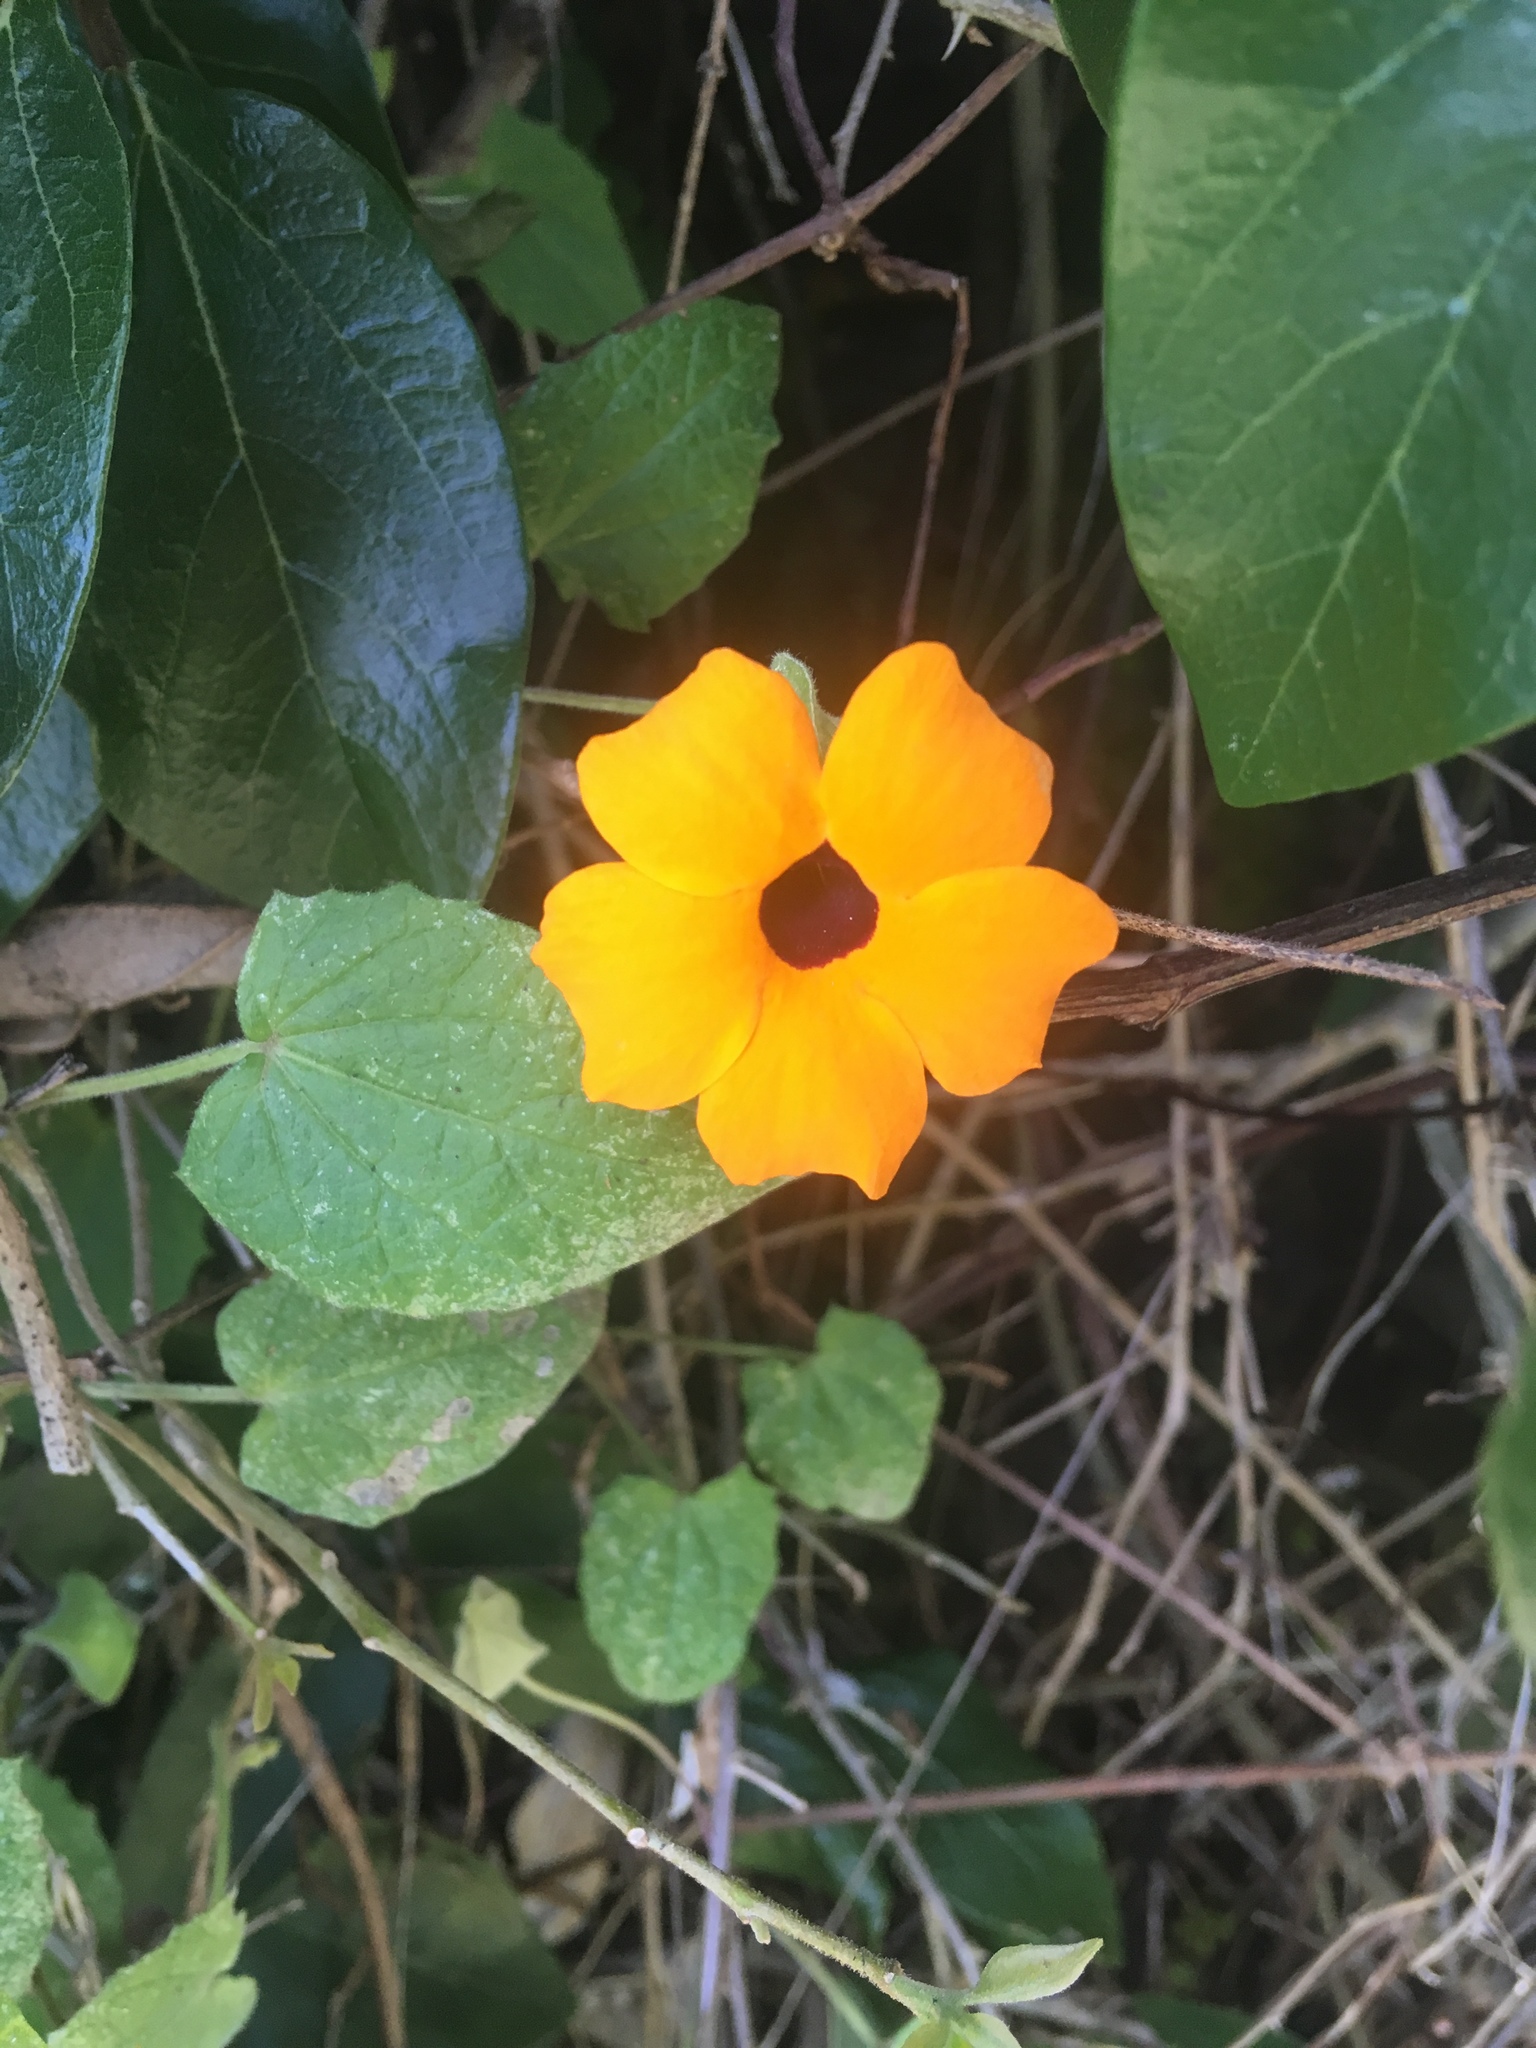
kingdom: Plantae
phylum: Tracheophyta
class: Magnoliopsida
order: Lamiales
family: Acanthaceae
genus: Thunbergia
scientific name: Thunbergia alata
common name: Blackeyed susan vine
